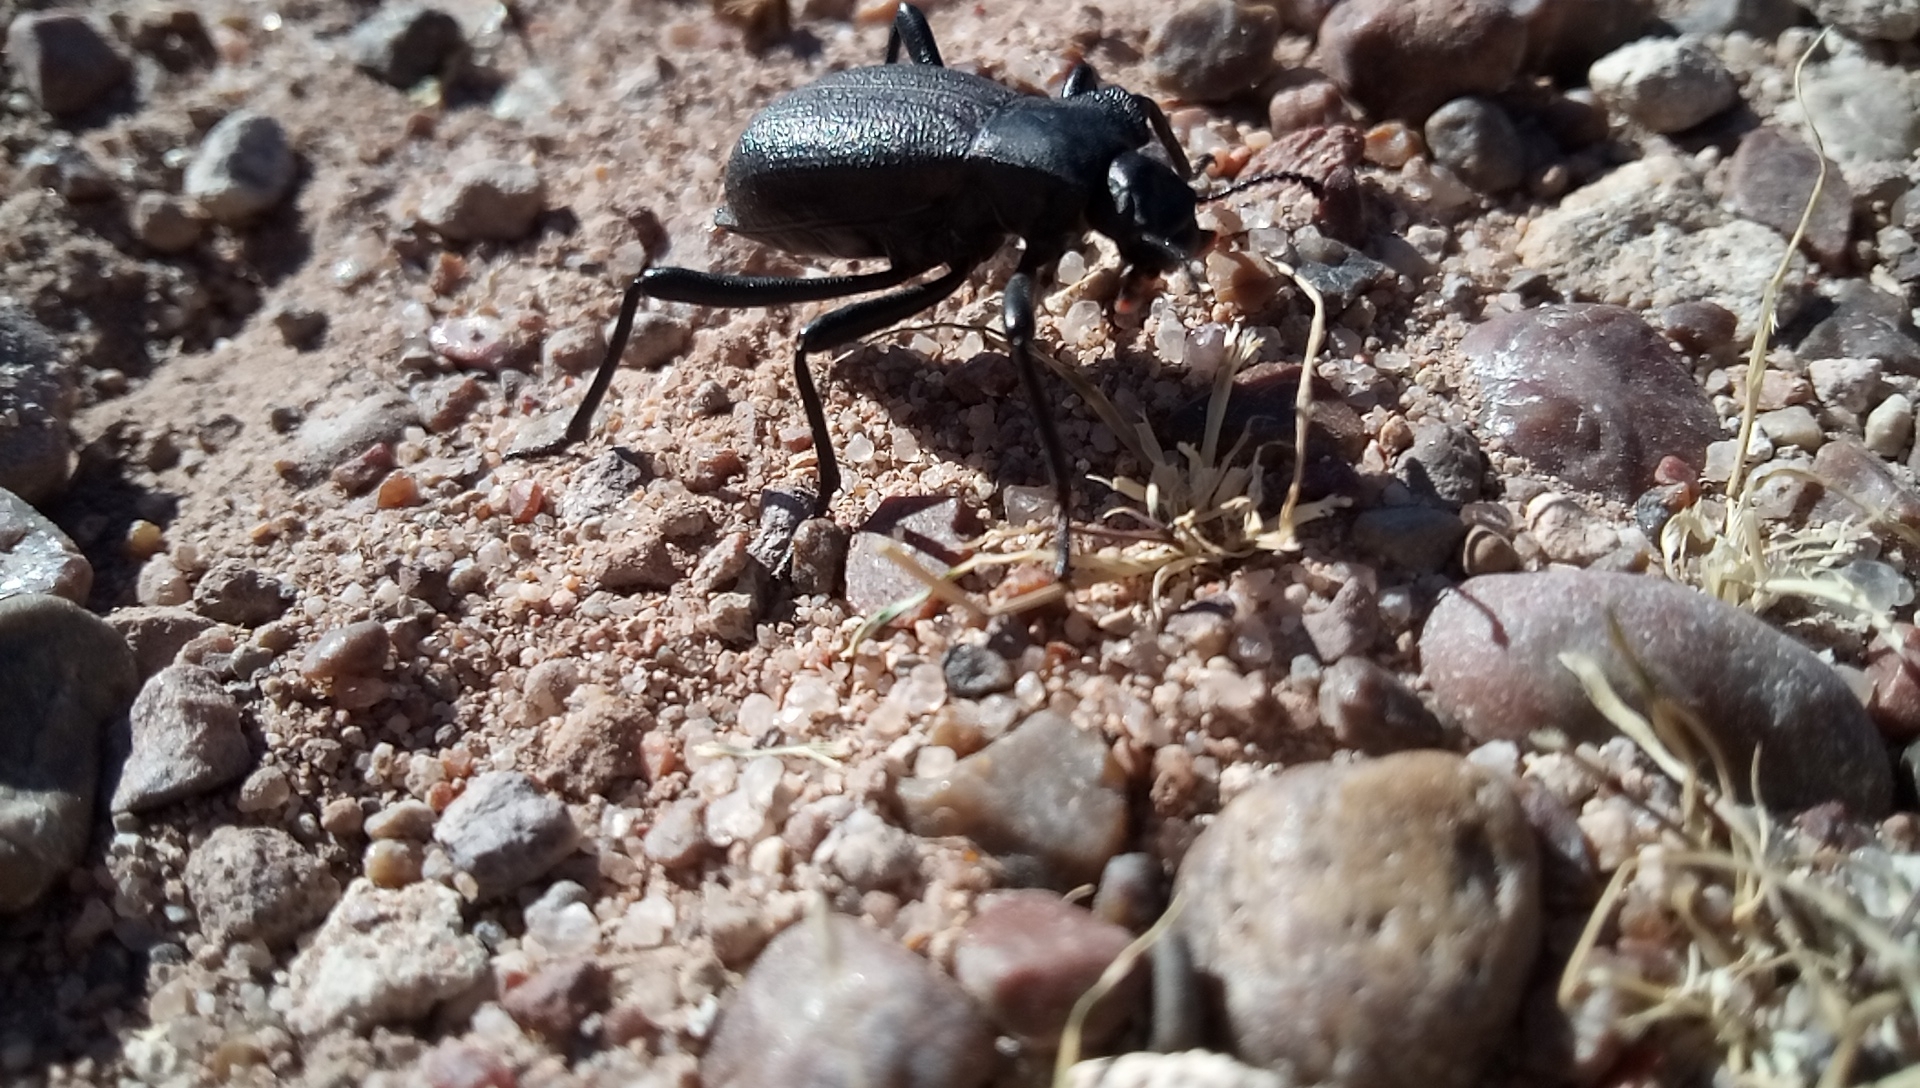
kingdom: Animalia
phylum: Arthropoda
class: Insecta
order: Coleoptera
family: Tenebrionidae
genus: Philolithus
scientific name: Philolithus elatus
